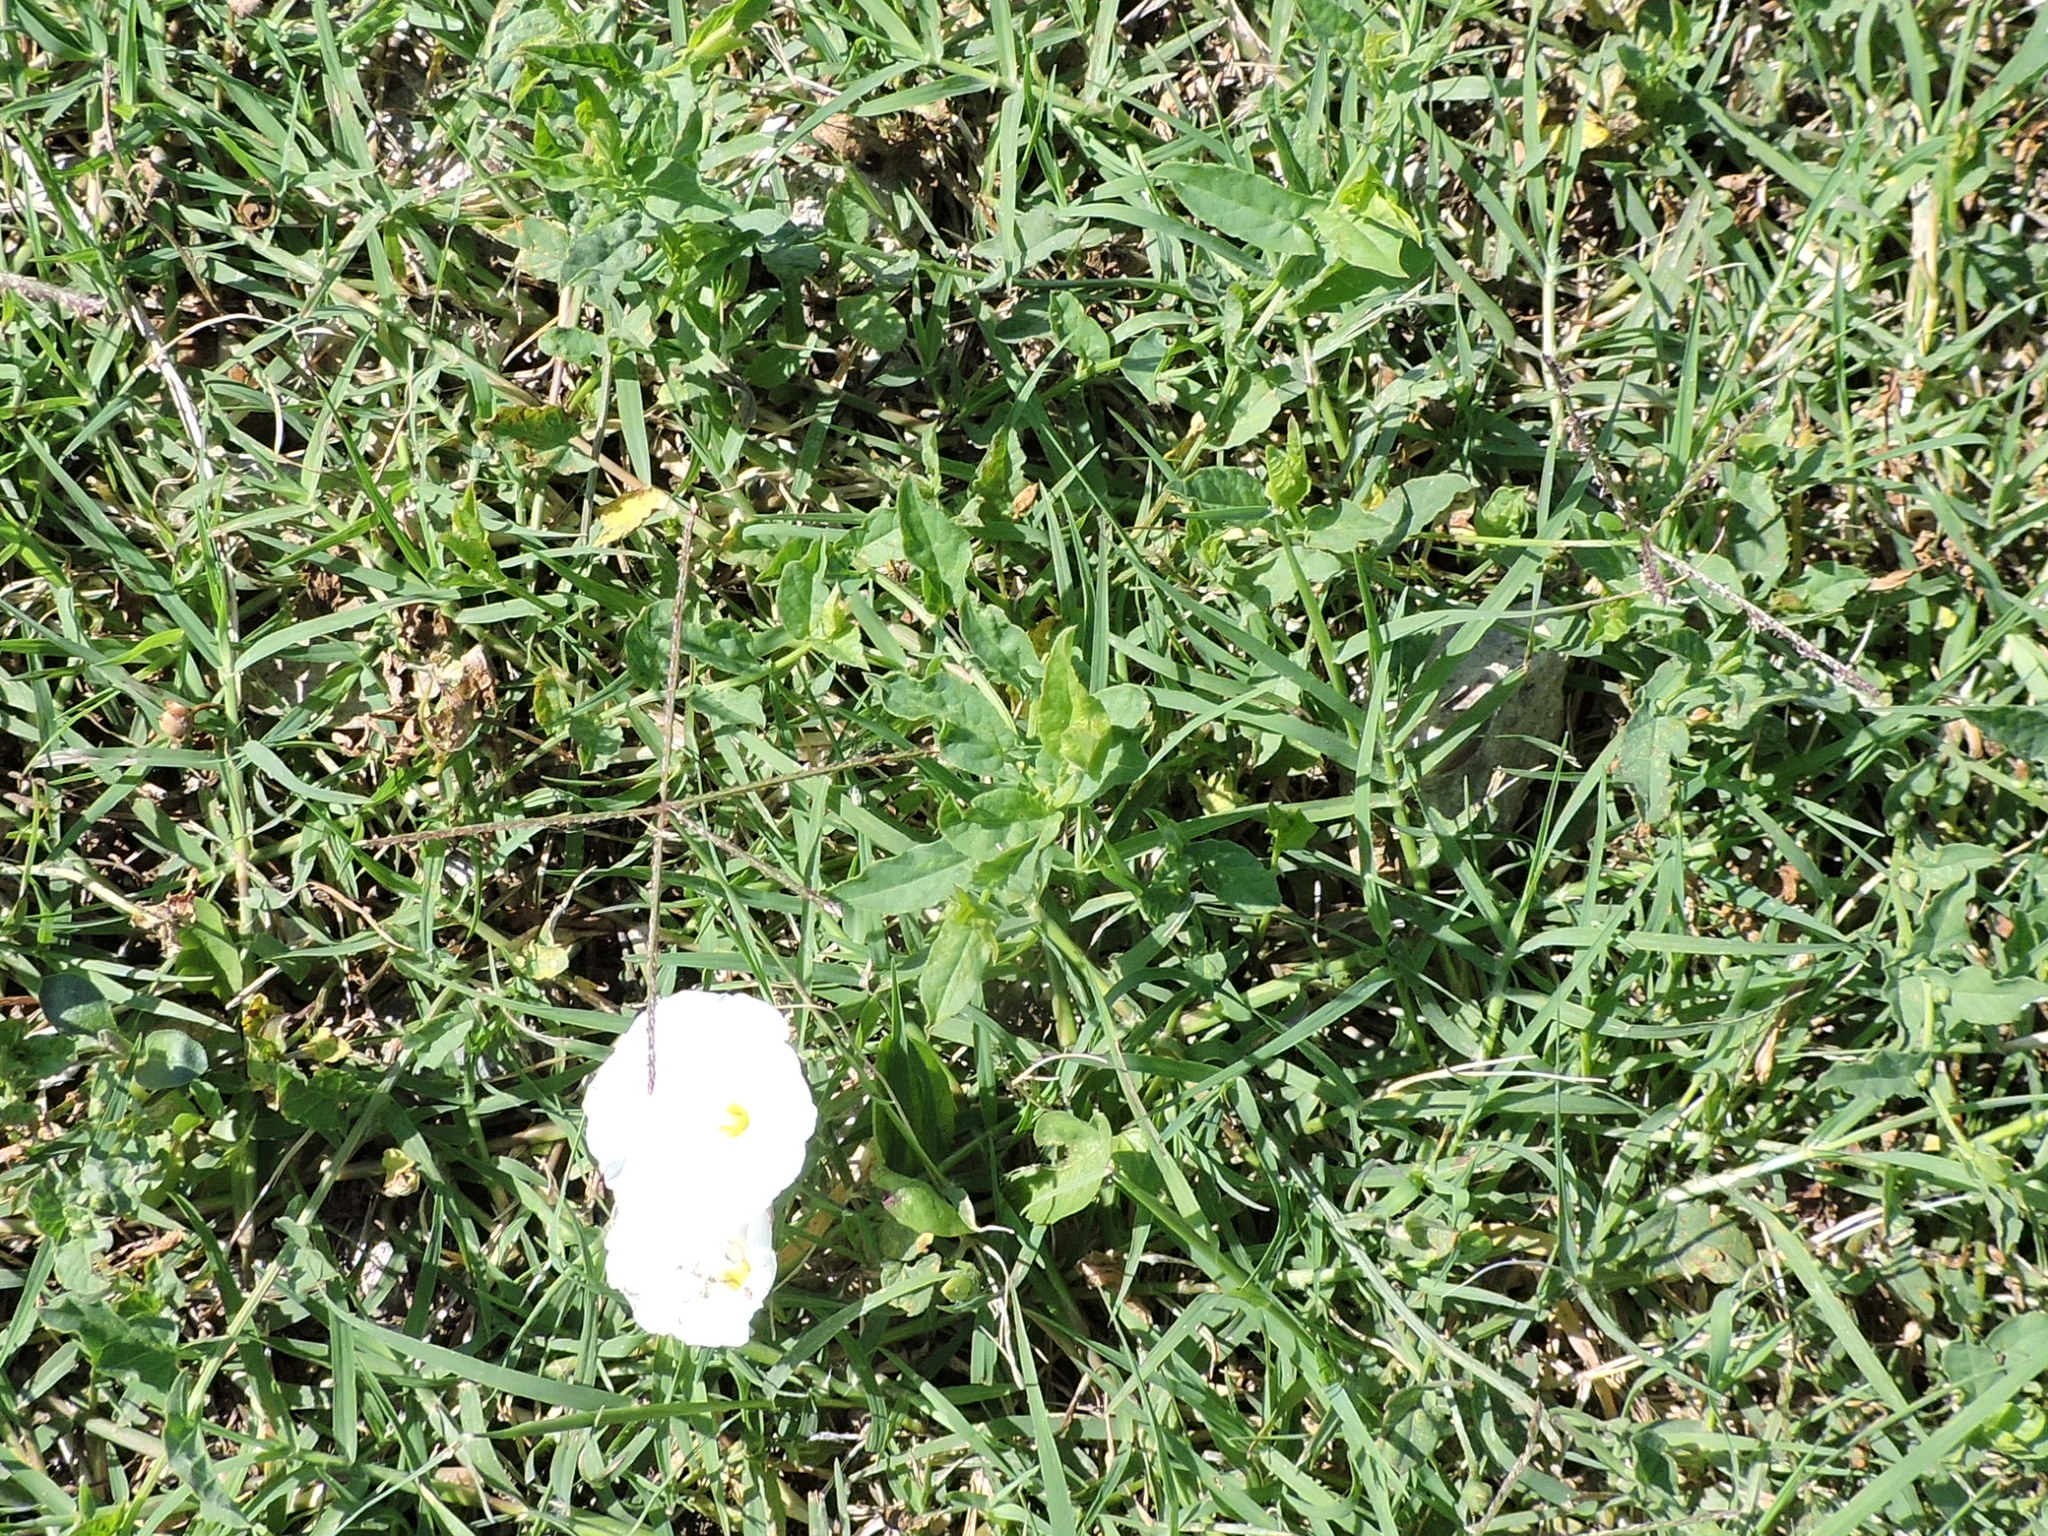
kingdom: Plantae
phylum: Tracheophyta
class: Magnoliopsida
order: Solanales
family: Convolvulaceae
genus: Convolvulus
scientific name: Convolvulus arvensis
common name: Field bindweed
